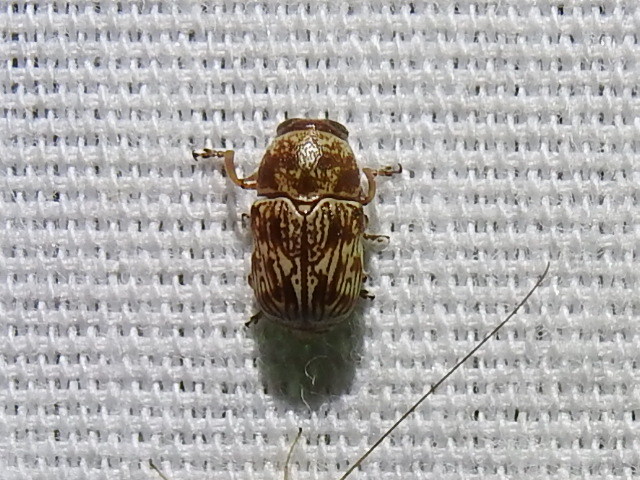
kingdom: Animalia
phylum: Arthropoda
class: Insecta
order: Coleoptera
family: Chrysomelidae
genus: Pachybrachis
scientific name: Pachybrachis
